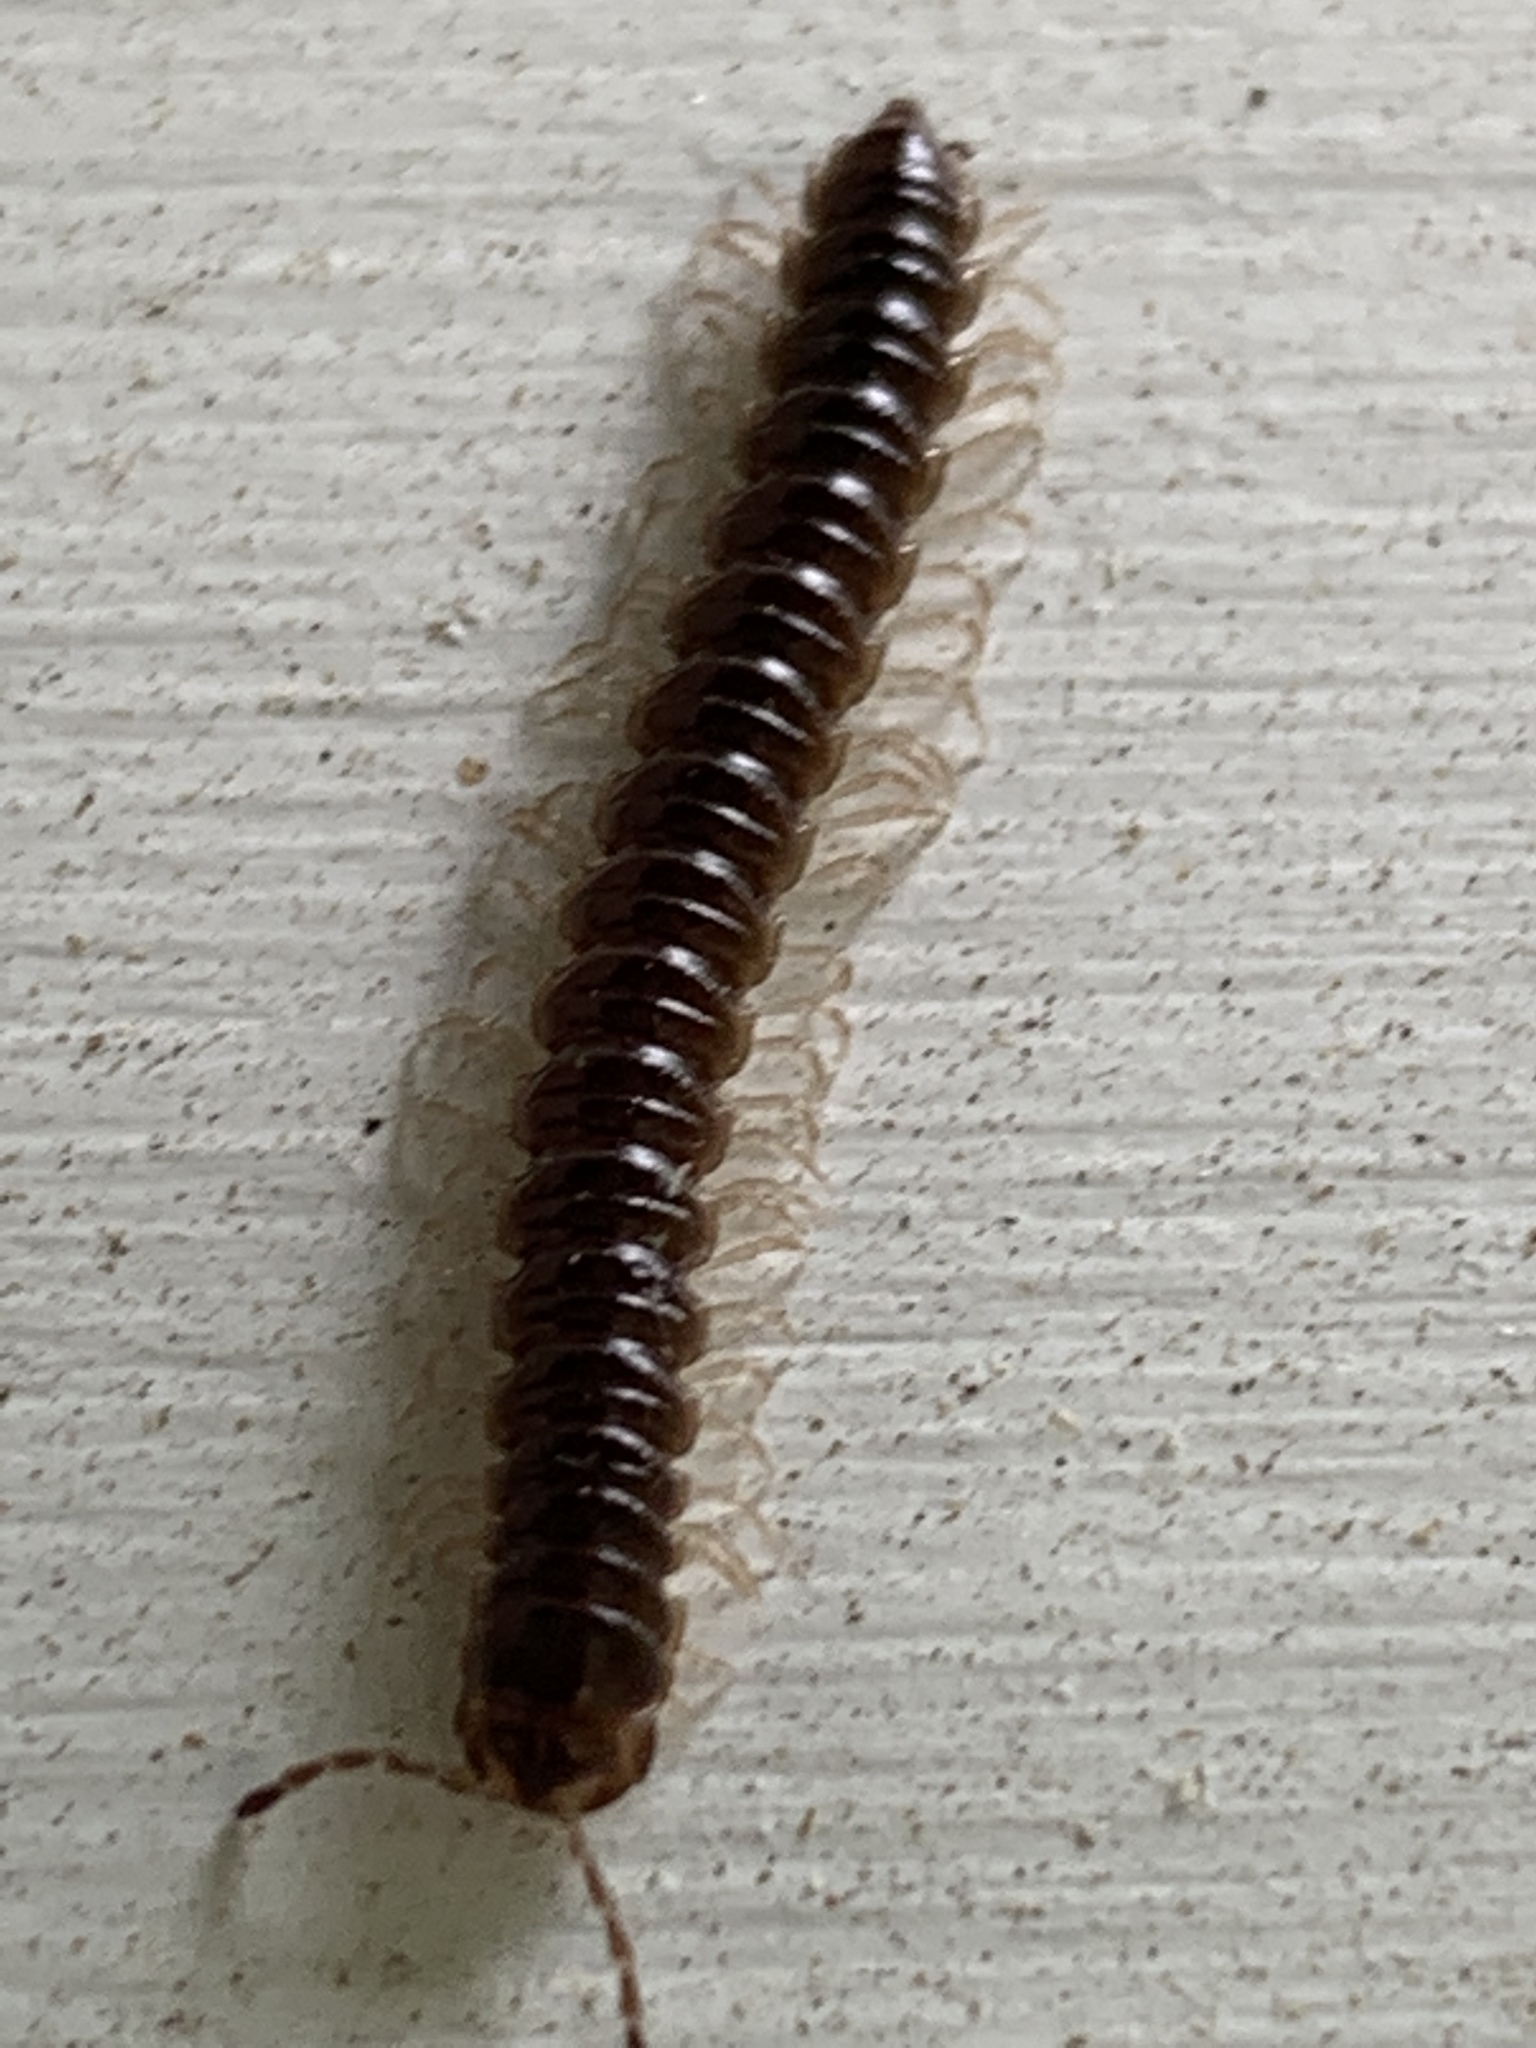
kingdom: Animalia
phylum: Arthropoda
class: Diplopoda
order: Polydesmida
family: Paradoxosomatidae
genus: Oxidus
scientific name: Oxidus gracilis
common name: Greenhouse millipede
